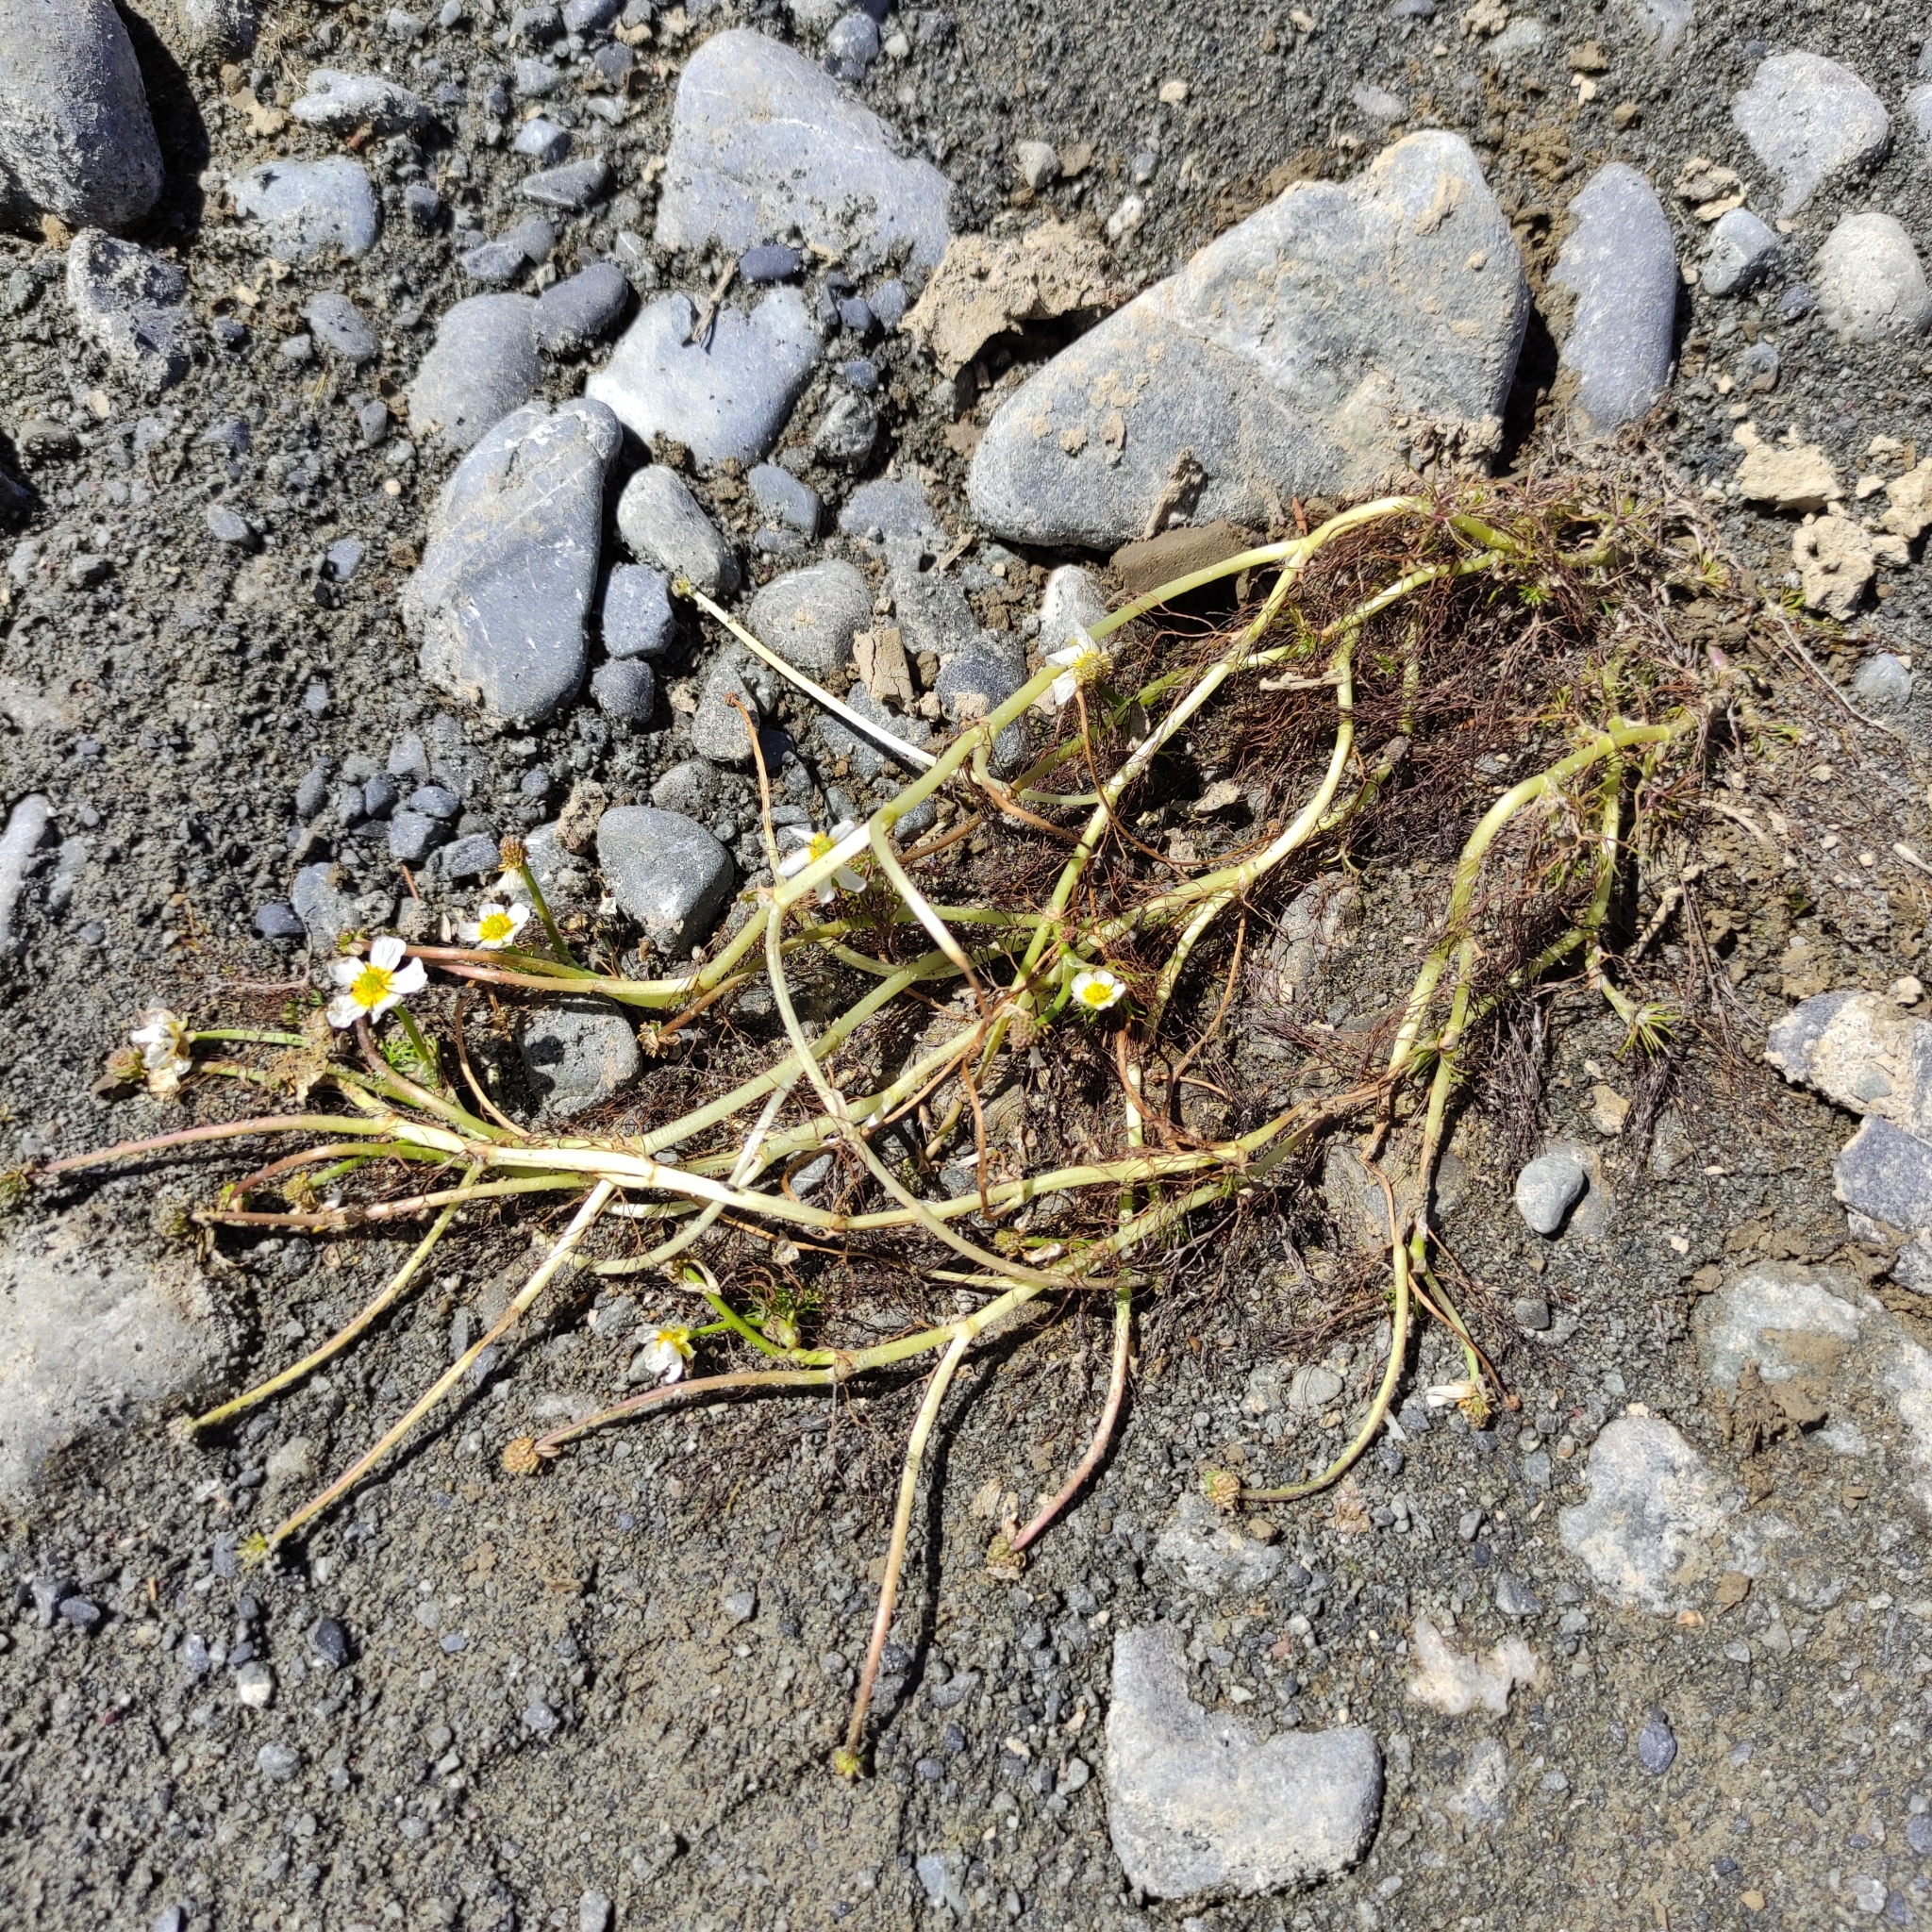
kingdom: Plantae
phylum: Tracheophyta
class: Magnoliopsida
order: Ranunculales
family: Ranunculaceae
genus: Ranunculus
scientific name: Ranunculus trichophyllus
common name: Thread-leaved water-crowfoot
